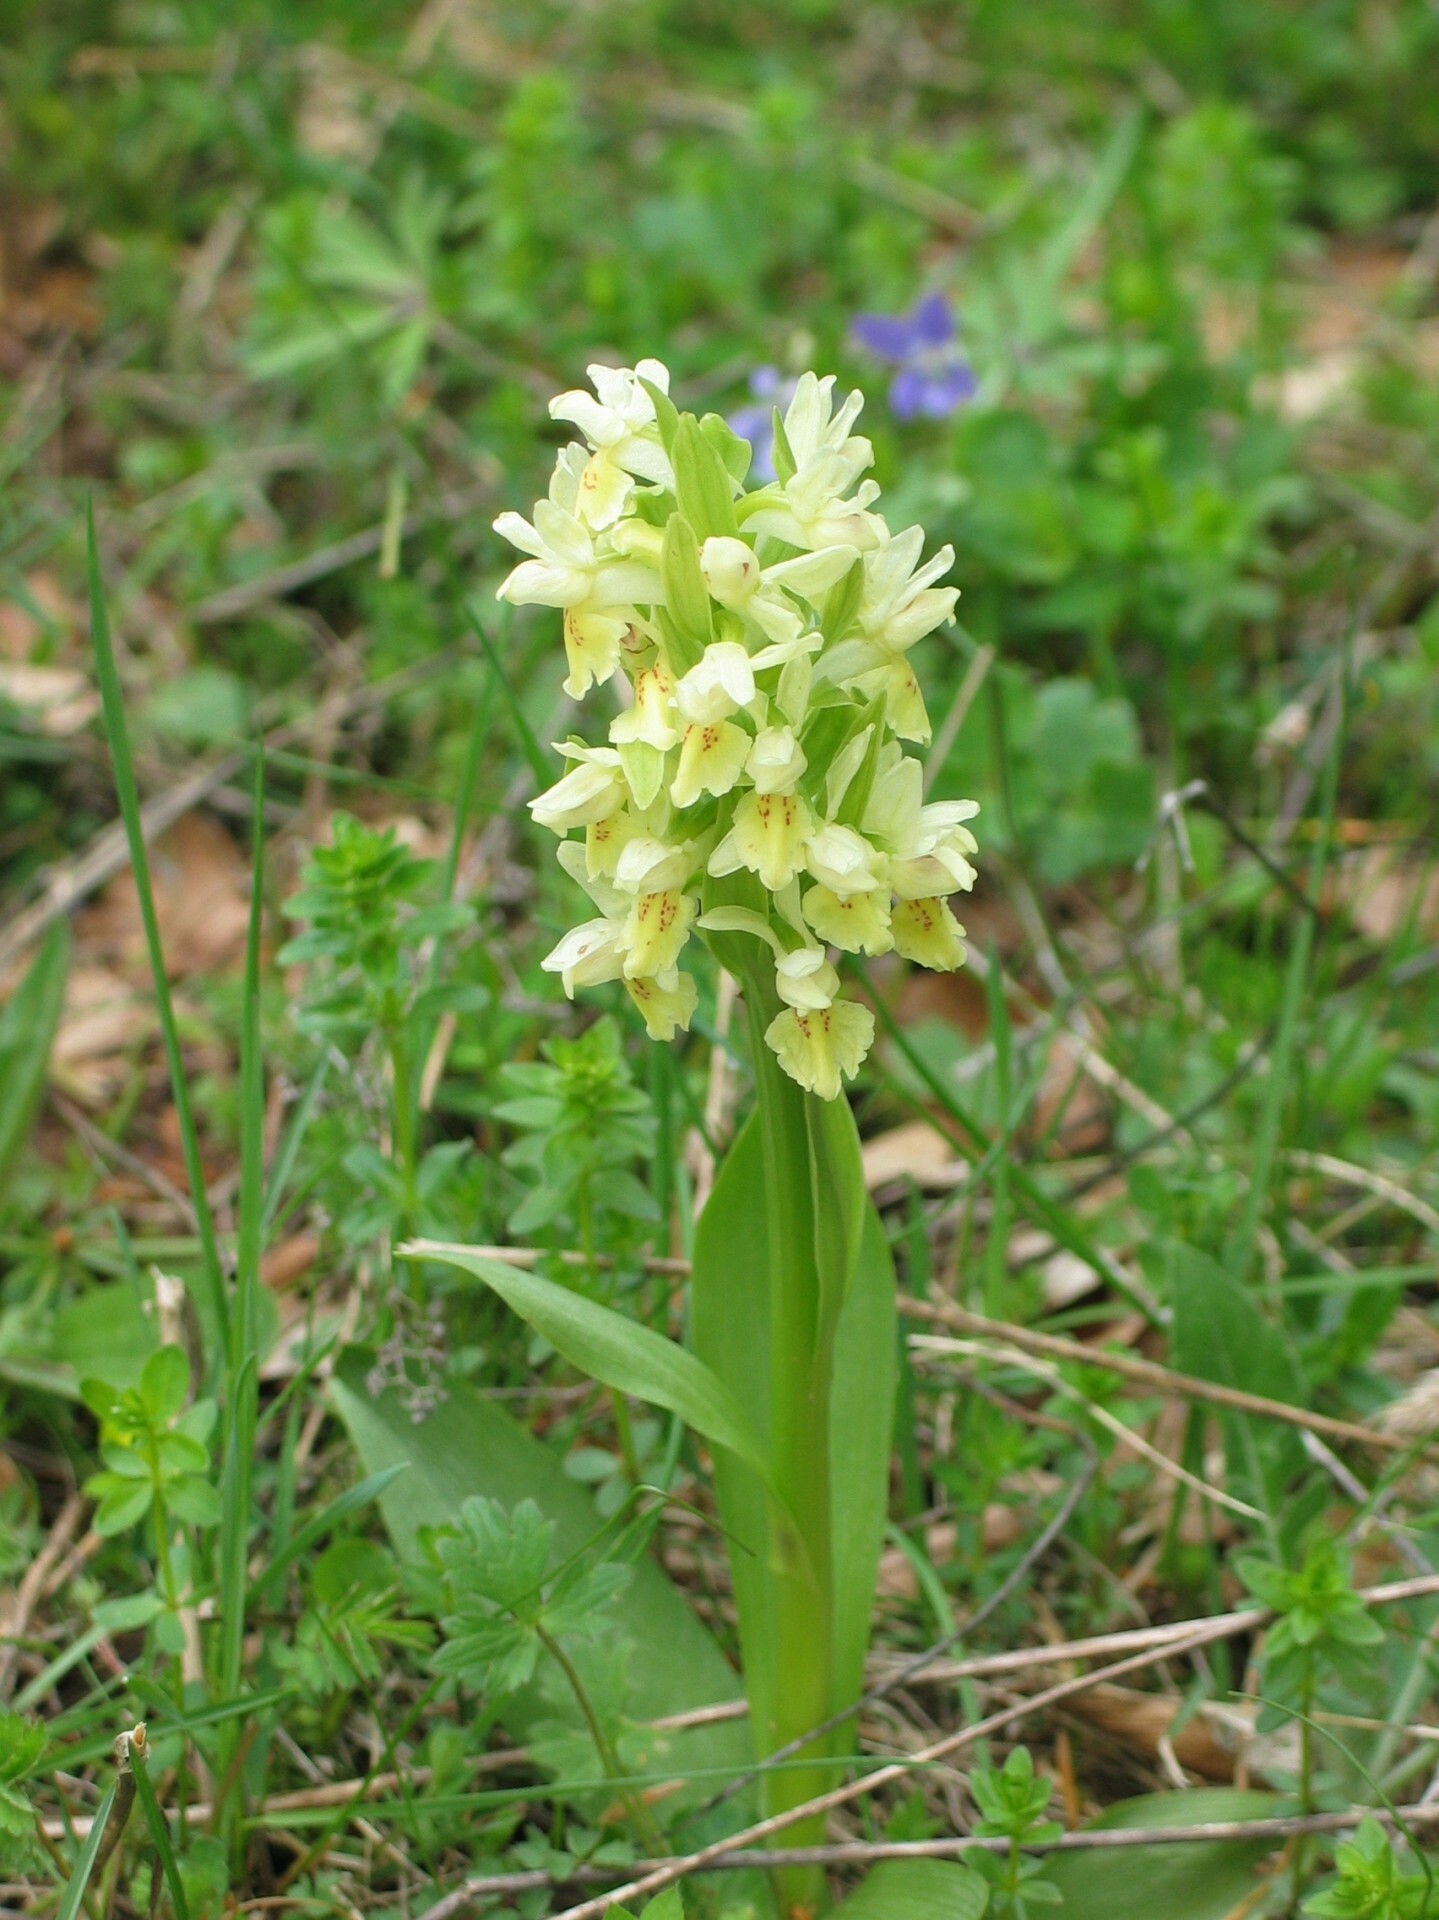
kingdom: Plantae
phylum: Tracheophyta
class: Liliopsida
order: Asparagales
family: Orchidaceae
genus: Dactylorhiza
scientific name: Dactylorhiza sambucina
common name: Elder-flowered orchid
